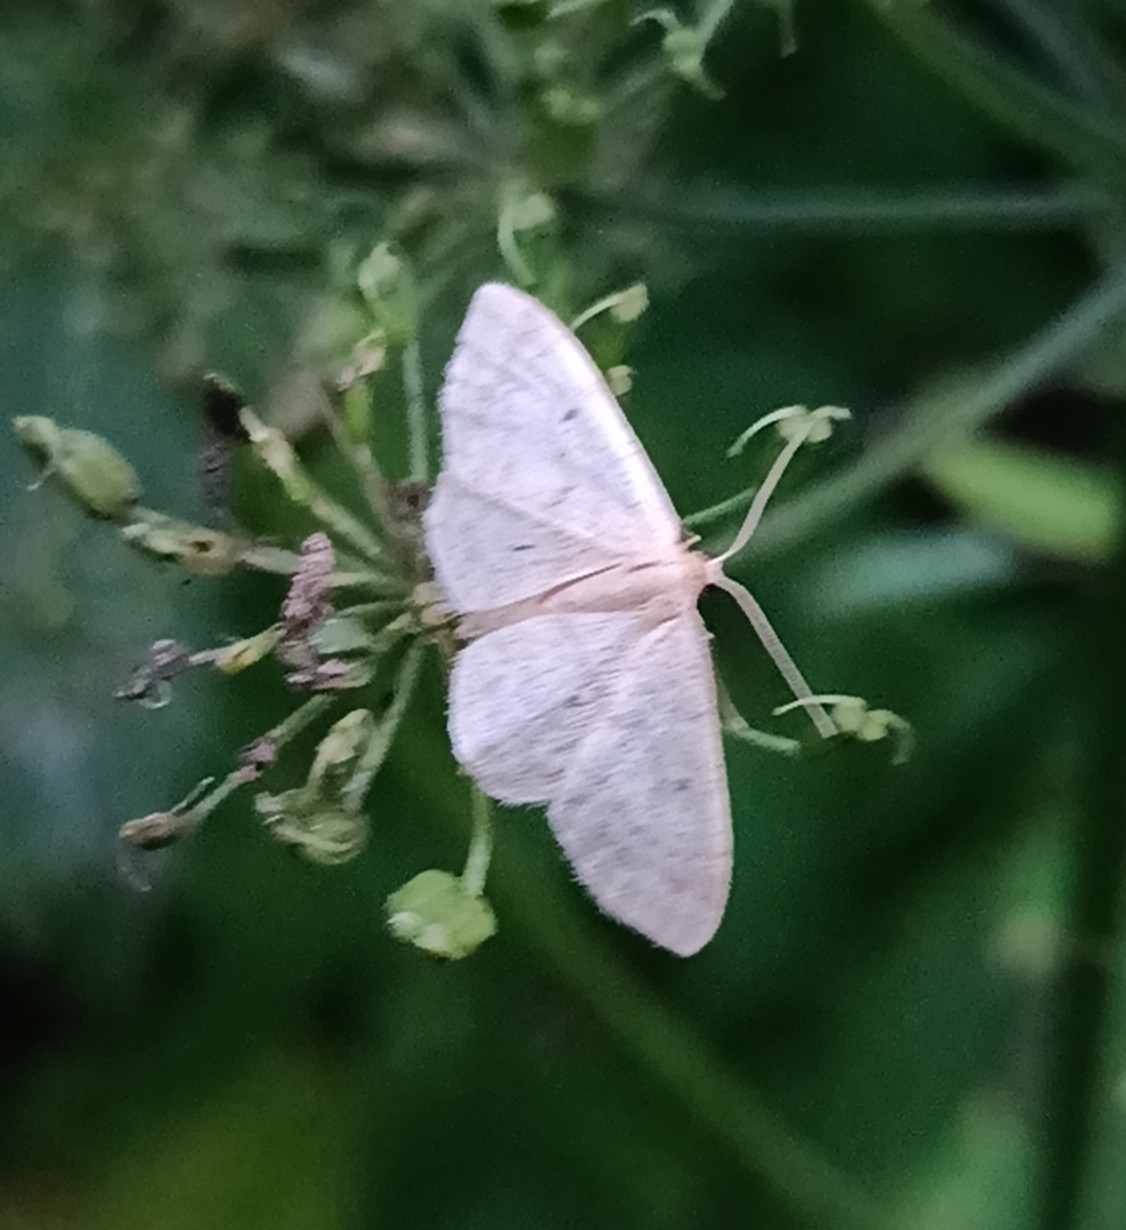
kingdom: Animalia
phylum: Arthropoda
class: Insecta
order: Lepidoptera
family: Geometridae
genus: Idaea
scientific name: Idaea biselata
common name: Small fan-footed wave
